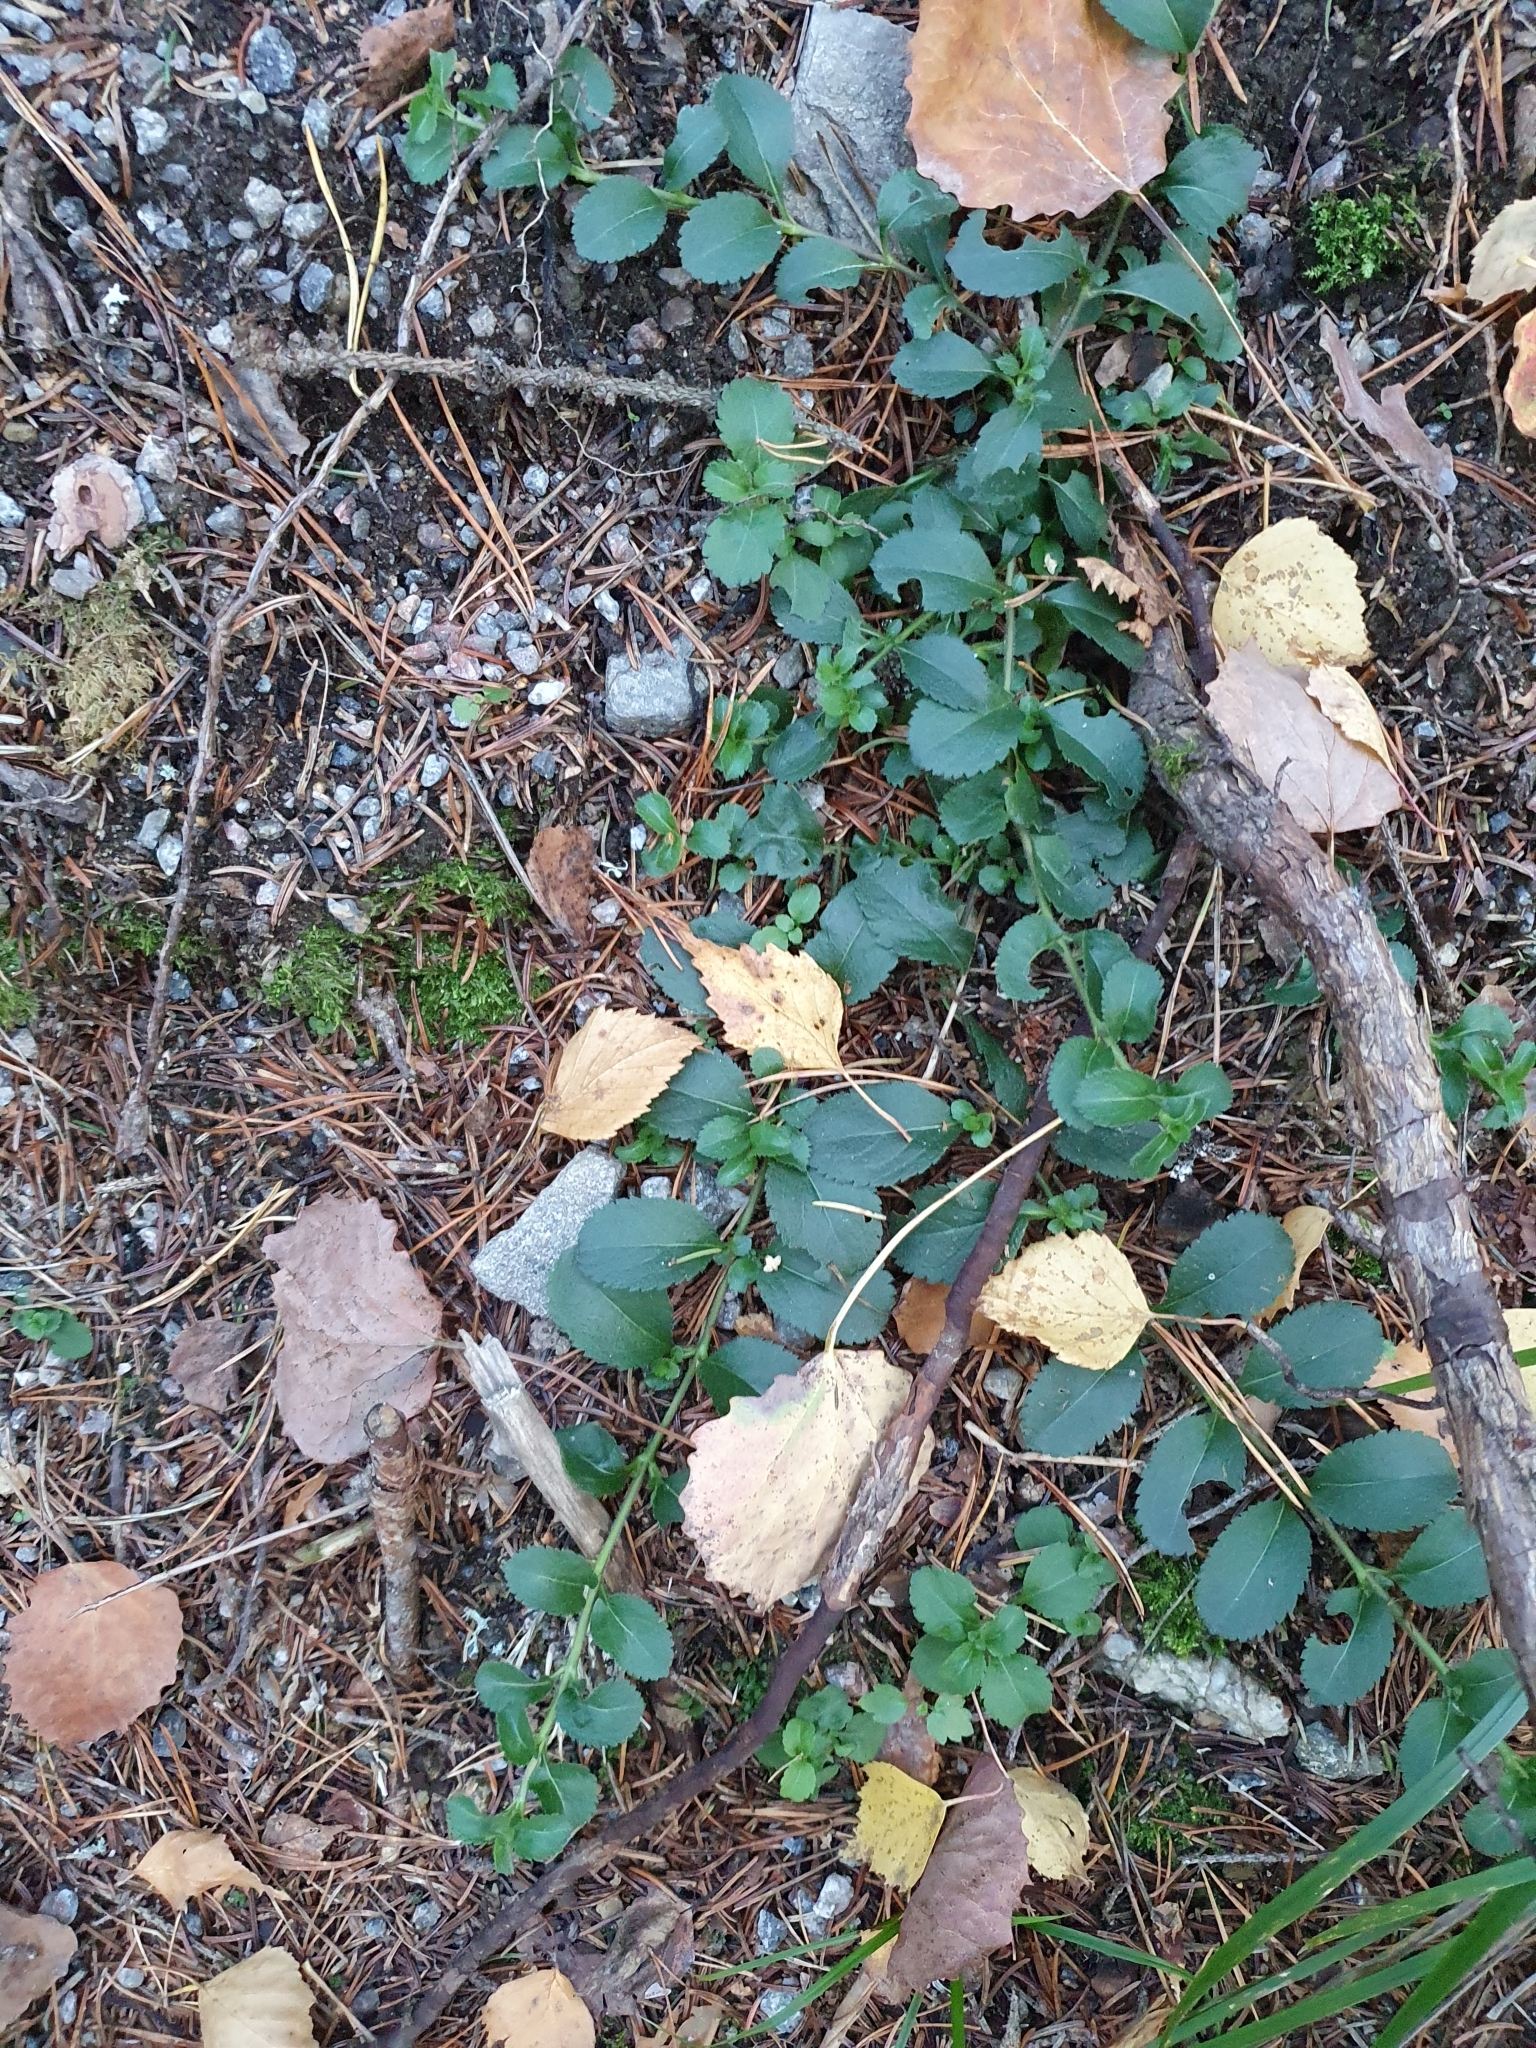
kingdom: Plantae
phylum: Tracheophyta
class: Magnoliopsida
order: Lamiales
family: Plantaginaceae
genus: Veronica
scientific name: Veronica officinalis
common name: Common speedwell
